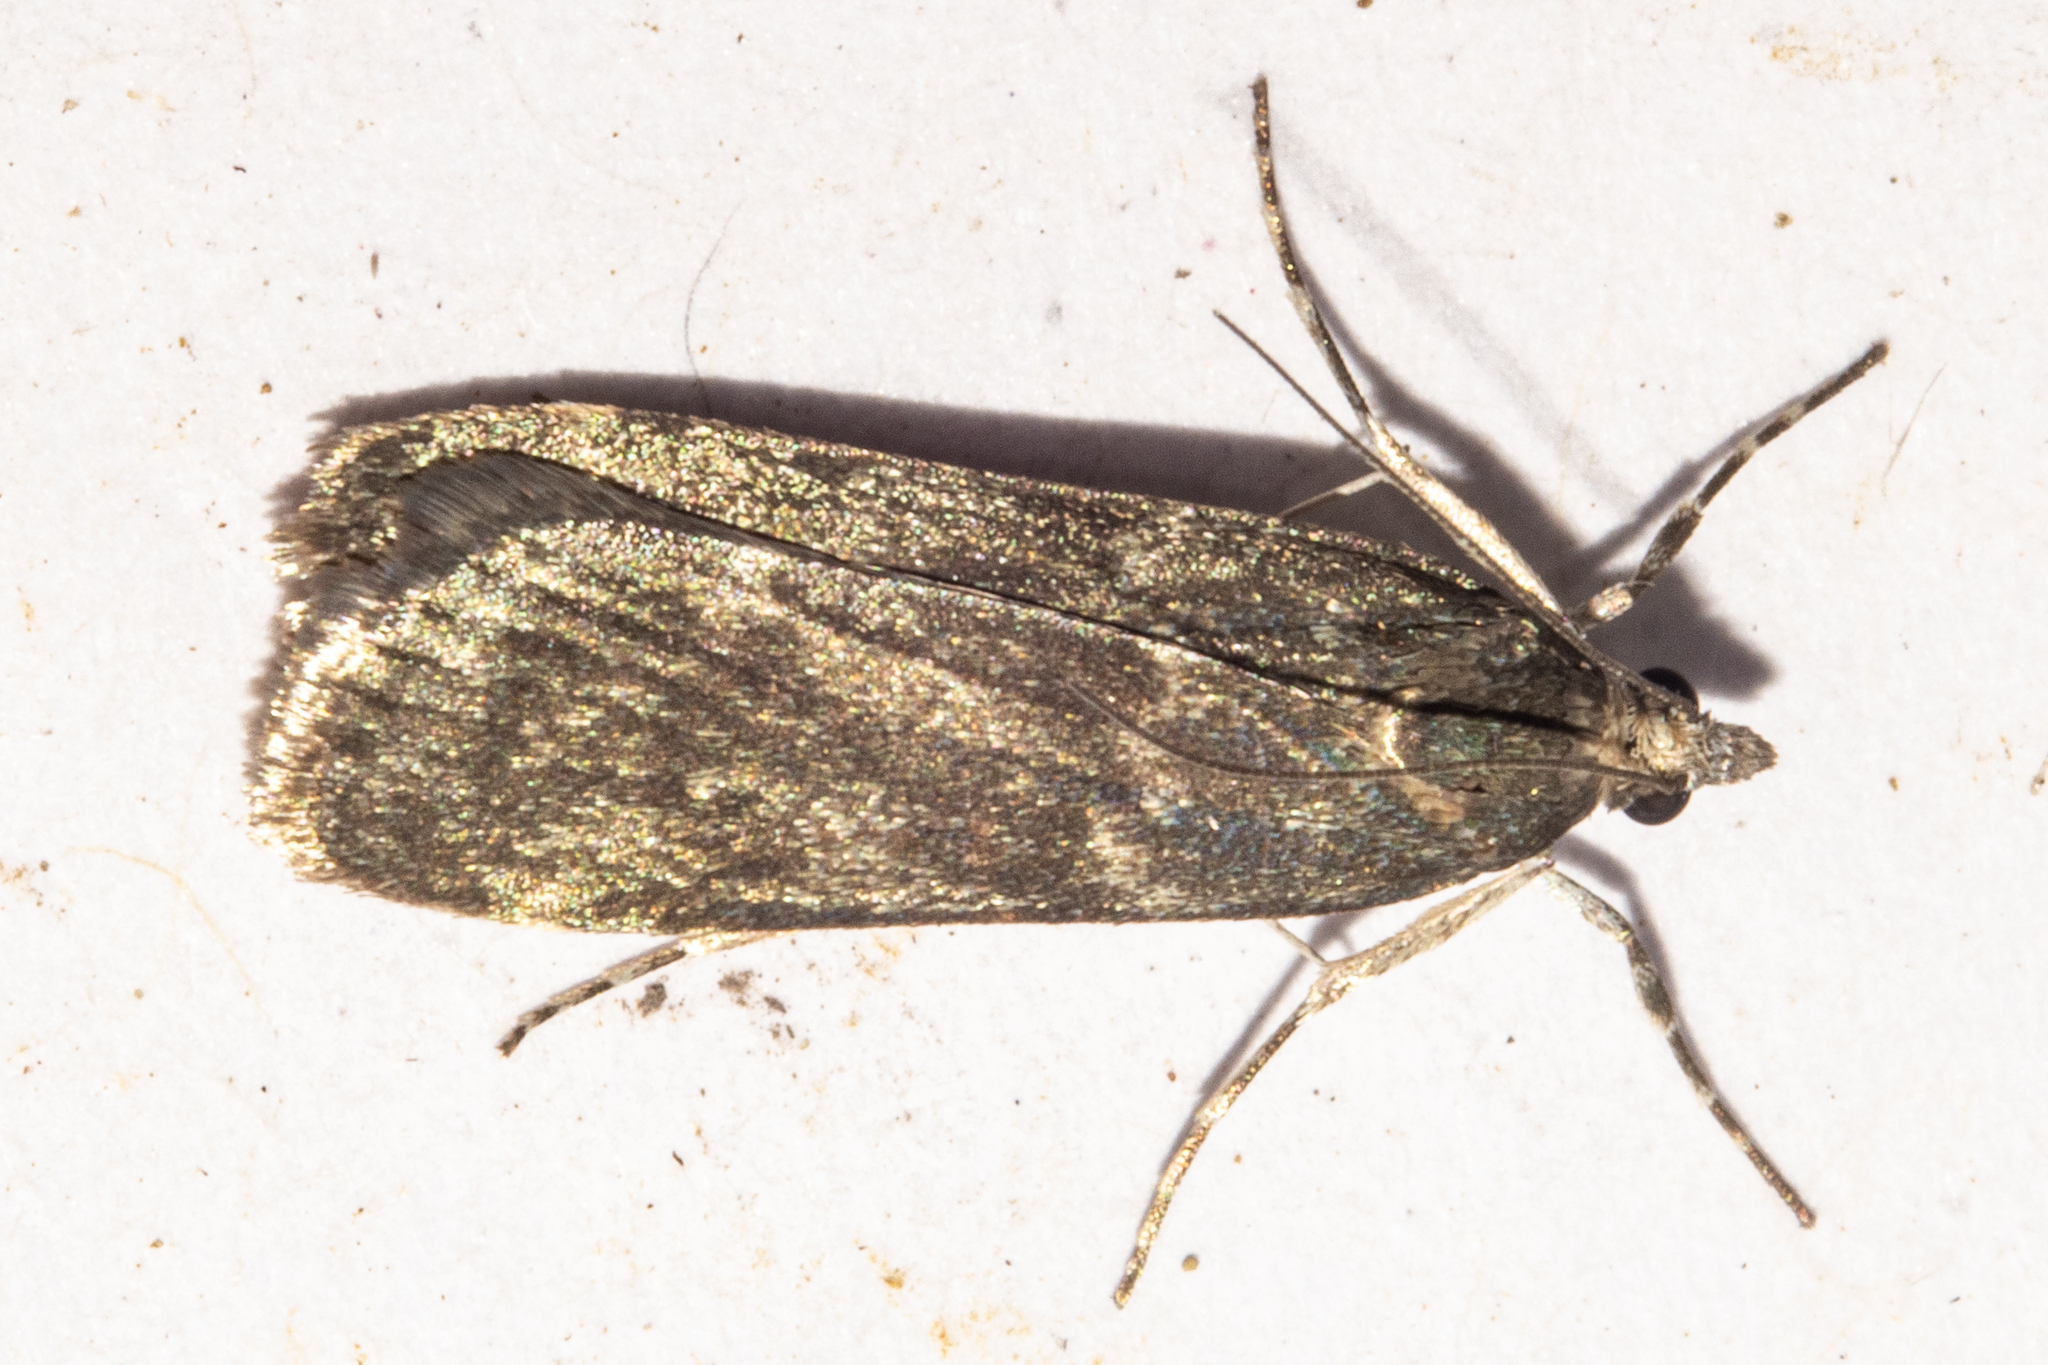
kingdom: Animalia
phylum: Arthropoda
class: Insecta
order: Lepidoptera
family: Crambidae
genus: Eudonia
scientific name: Eudonia cataxesta
